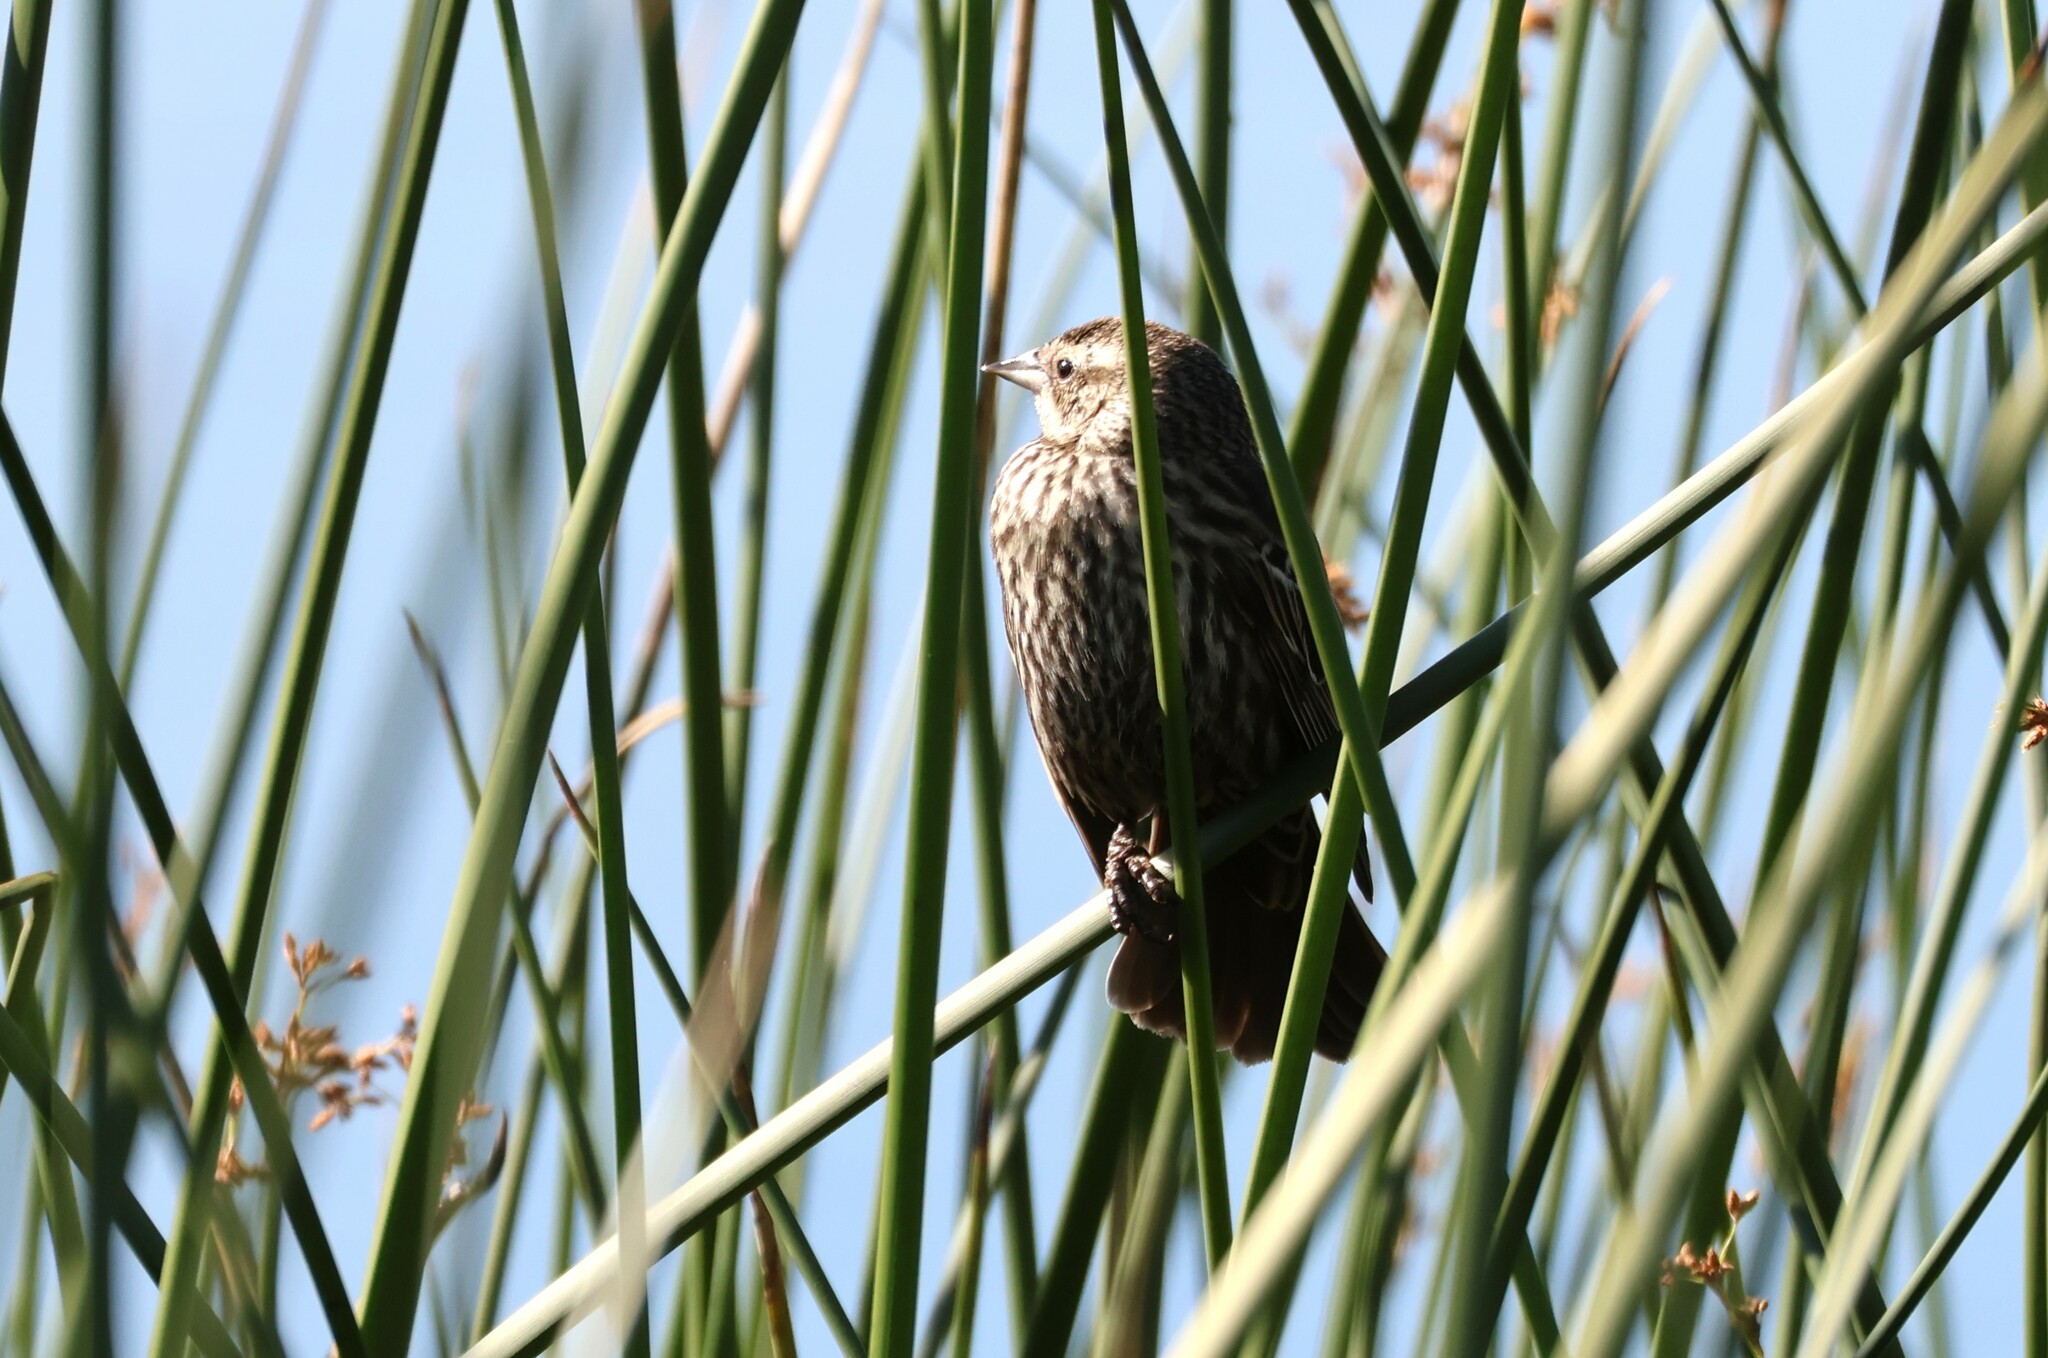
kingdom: Animalia
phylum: Chordata
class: Aves
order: Passeriformes
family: Icteridae
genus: Agelaius
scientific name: Agelaius phoeniceus
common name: Red-winged blackbird
